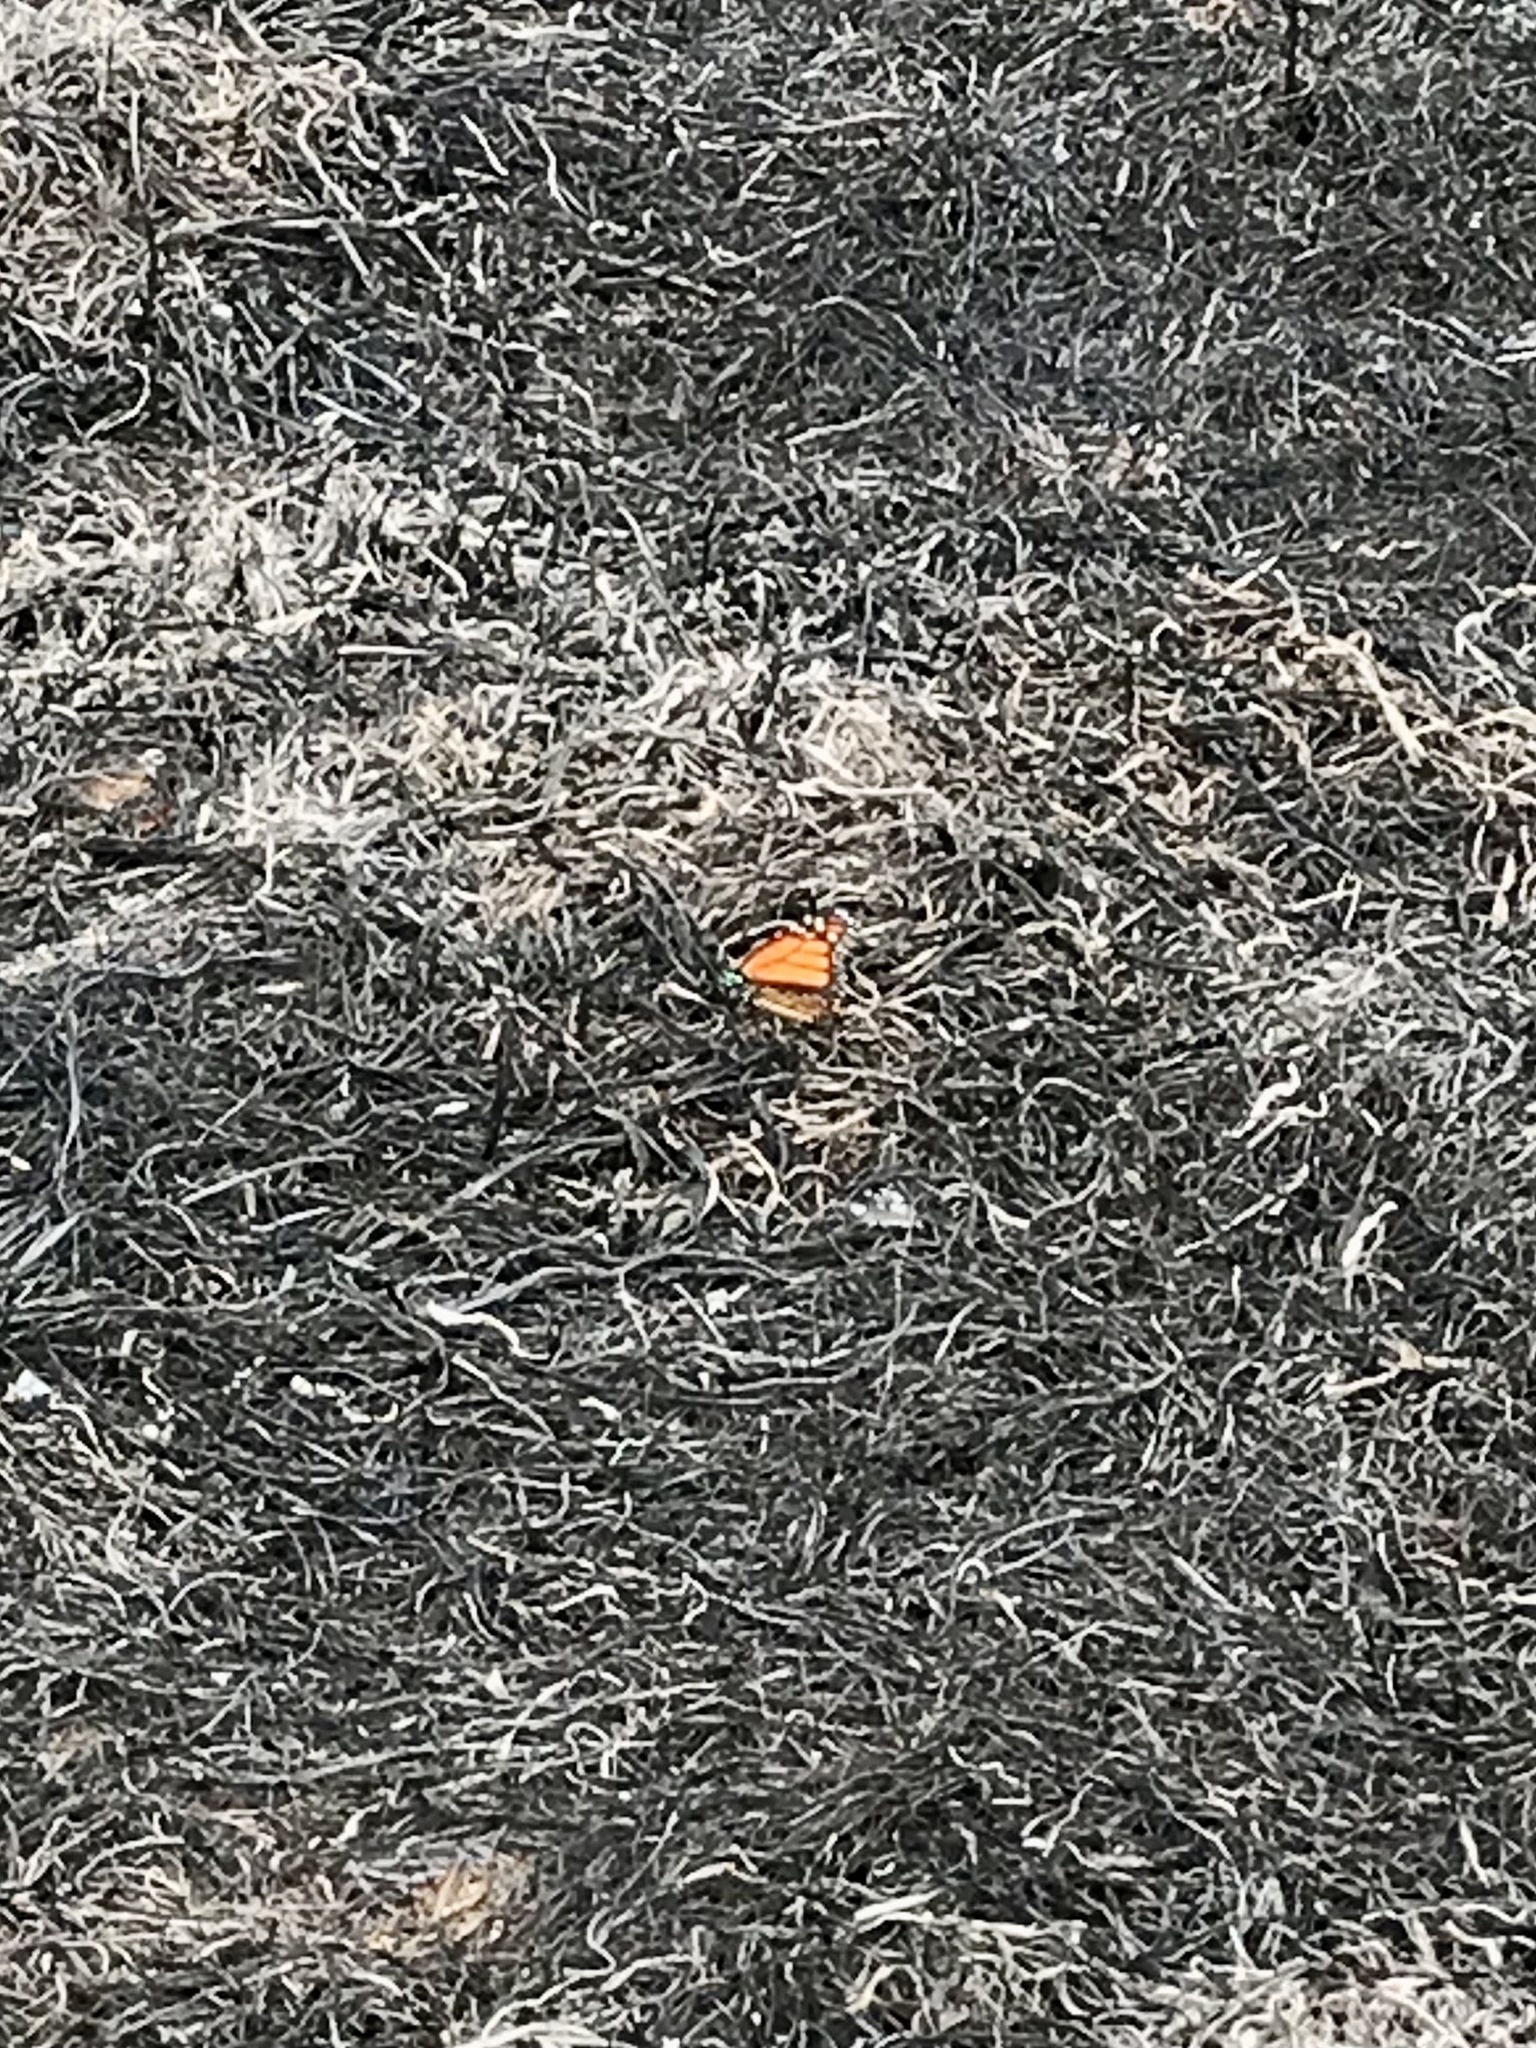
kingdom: Animalia
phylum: Arthropoda
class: Insecta
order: Lepidoptera
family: Nymphalidae
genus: Danaus
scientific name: Danaus plexippus
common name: Monarch
